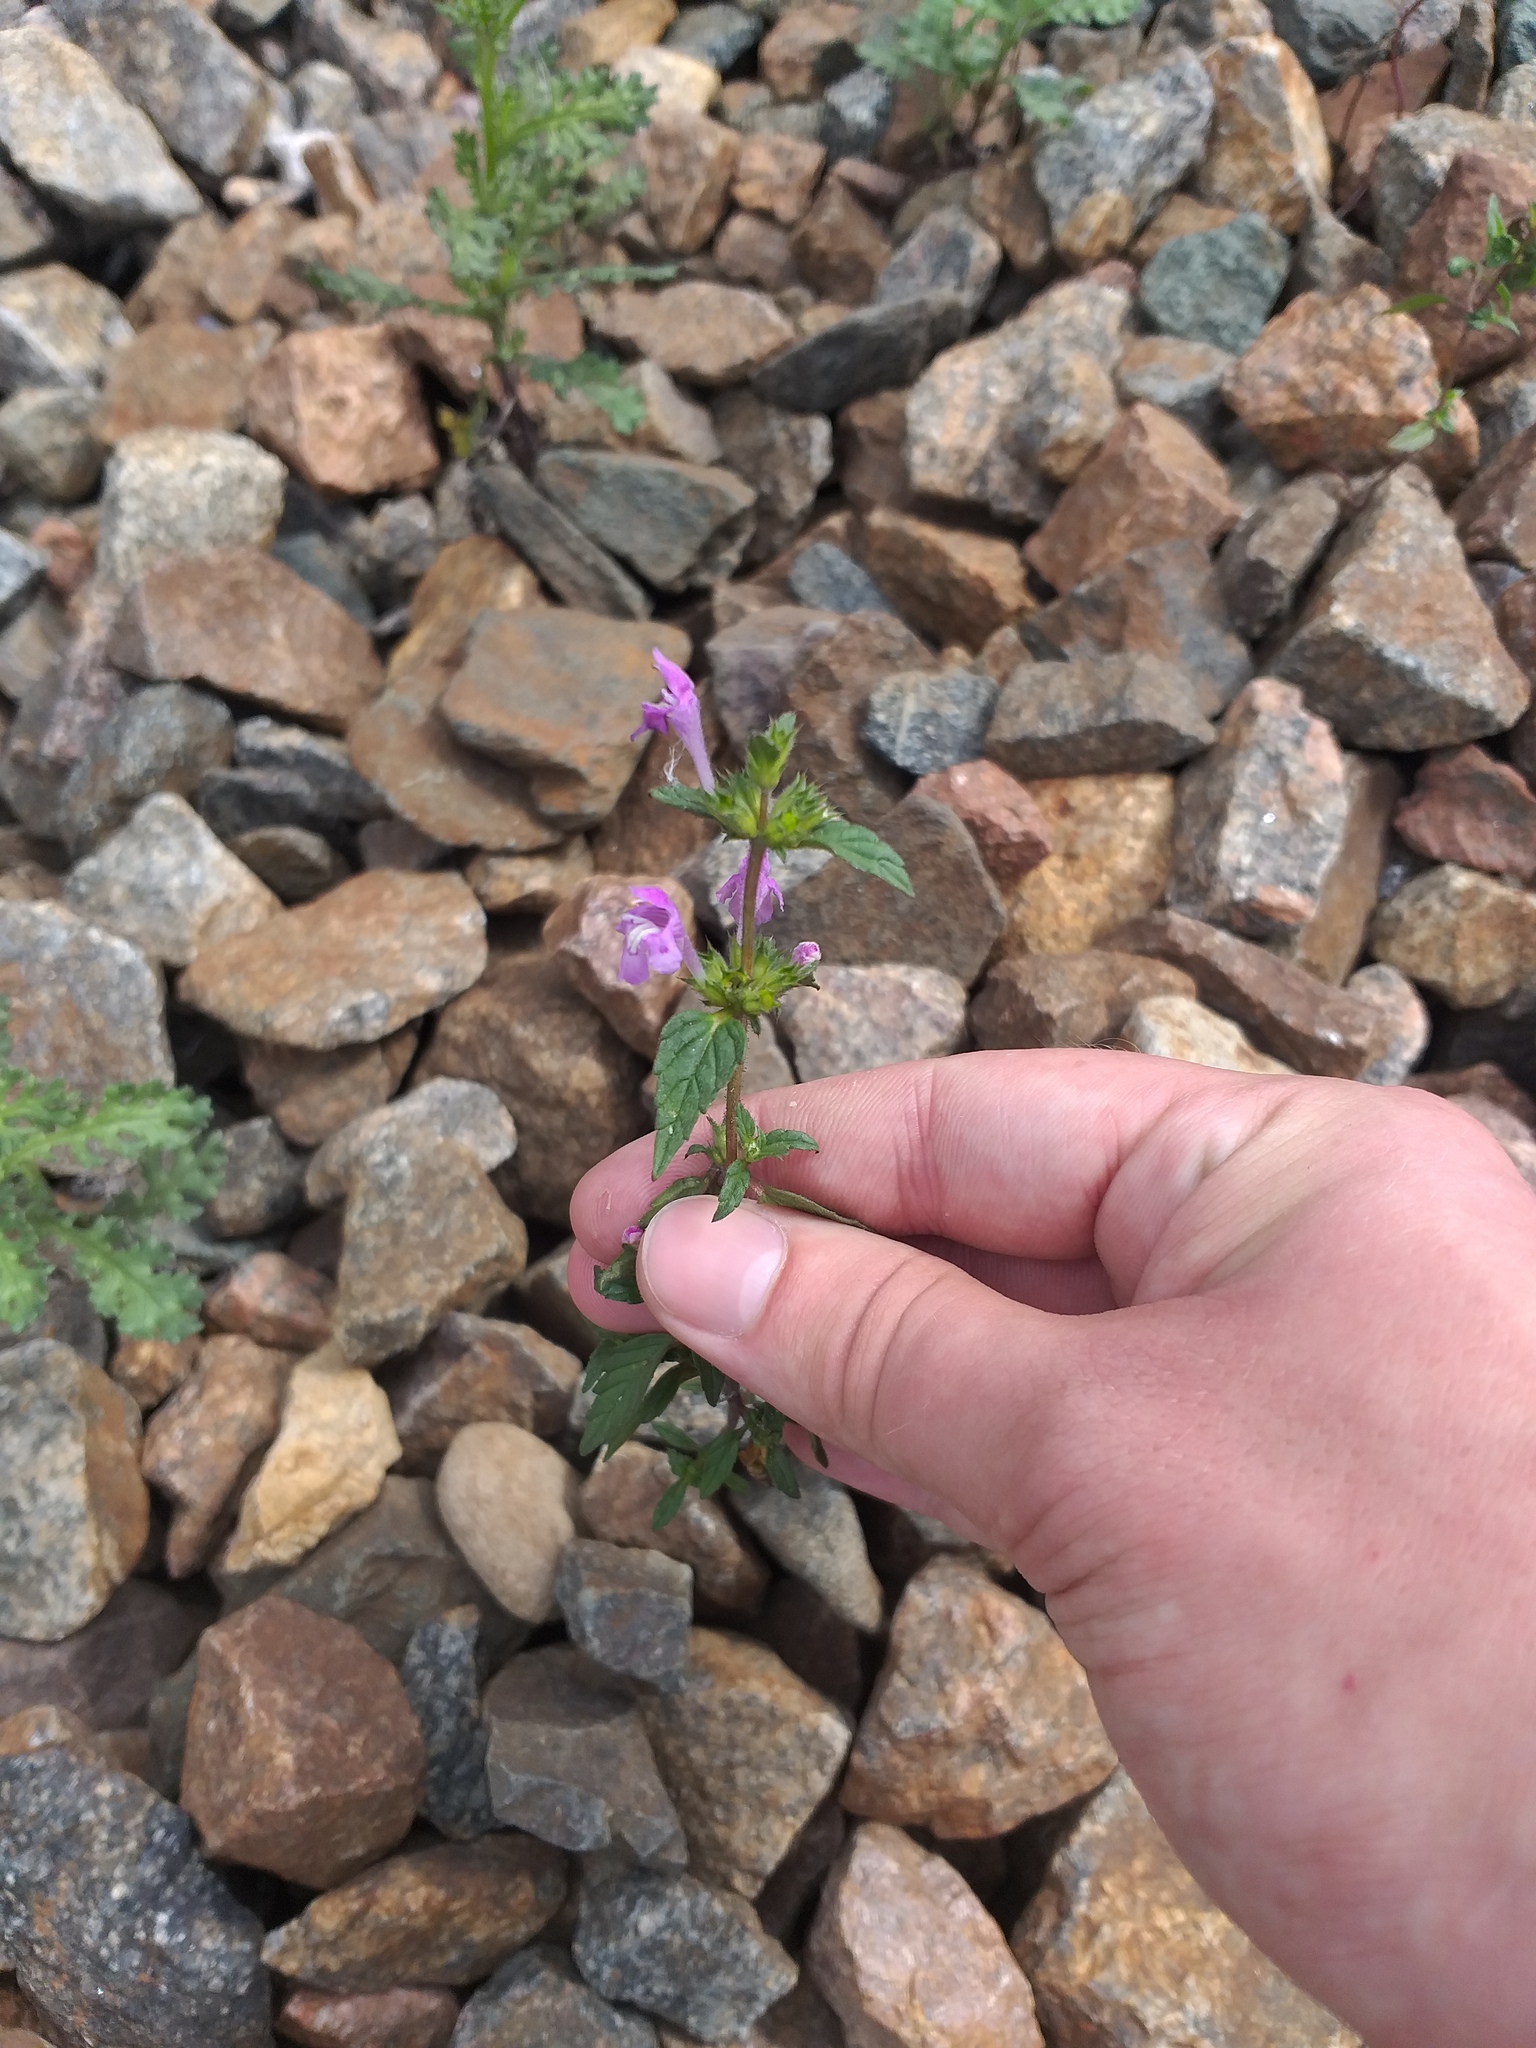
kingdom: Plantae
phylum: Tracheophyta
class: Magnoliopsida
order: Lamiales
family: Lamiaceae
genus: Galeopsis
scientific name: Galeopsis ladanum
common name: Broad-leaved hemp-nettle
